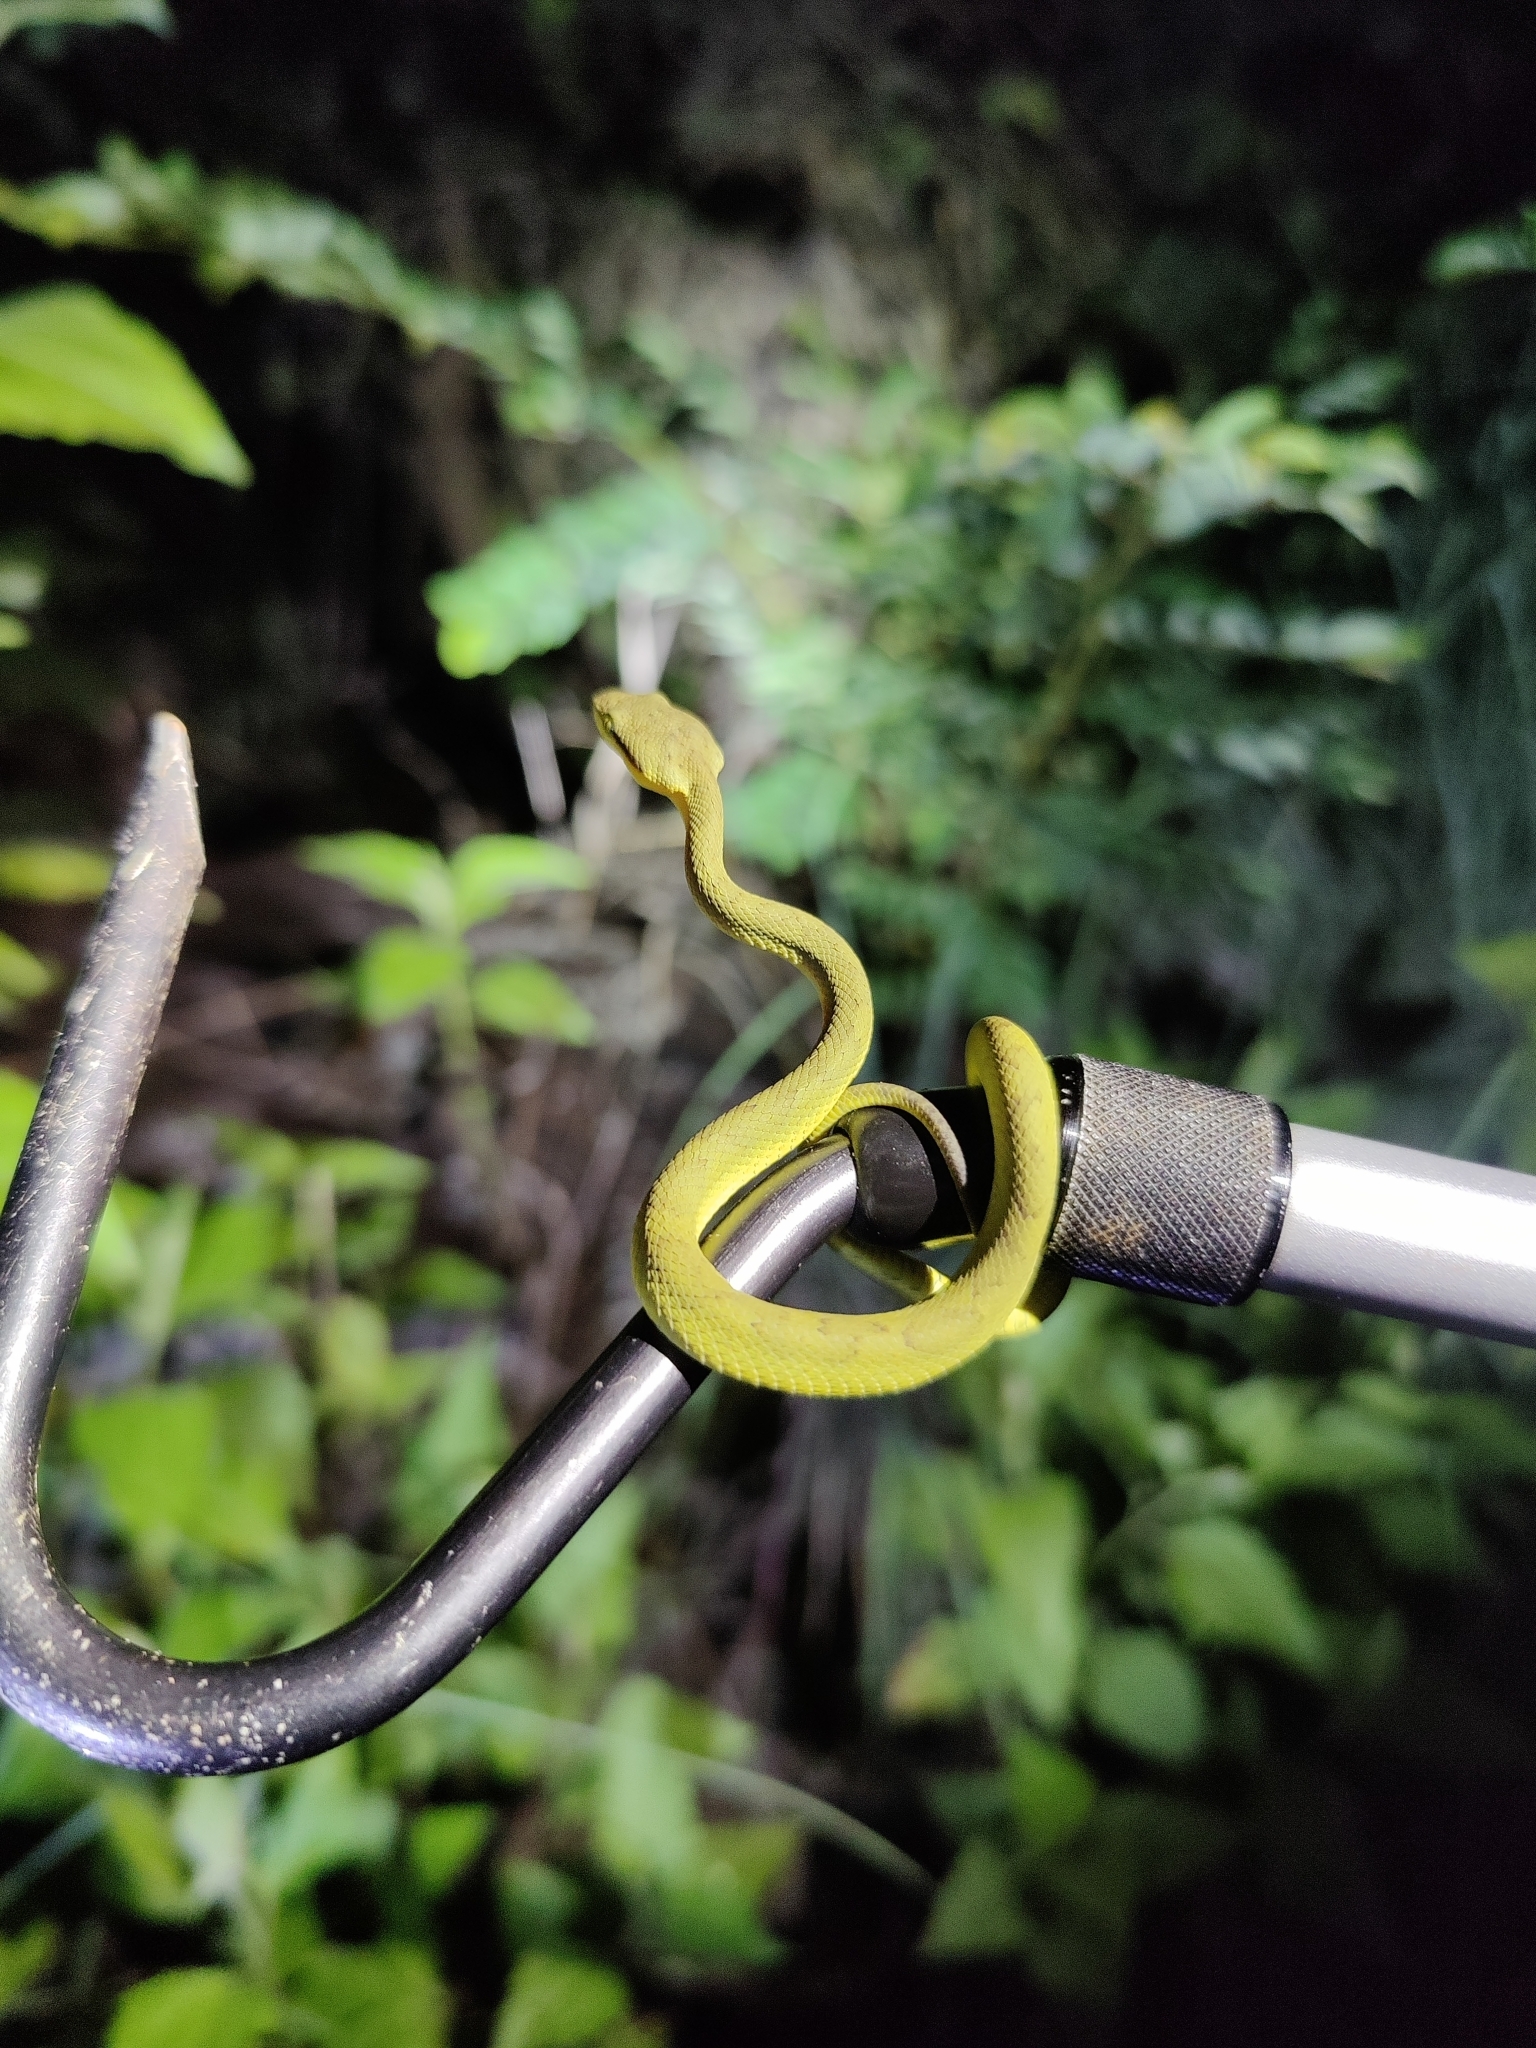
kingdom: Animalia
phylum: Chordata
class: Squamata
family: Viperidae
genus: Craspedocephalus
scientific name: Craspedocephalus gramineus
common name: Common bamboo viper
